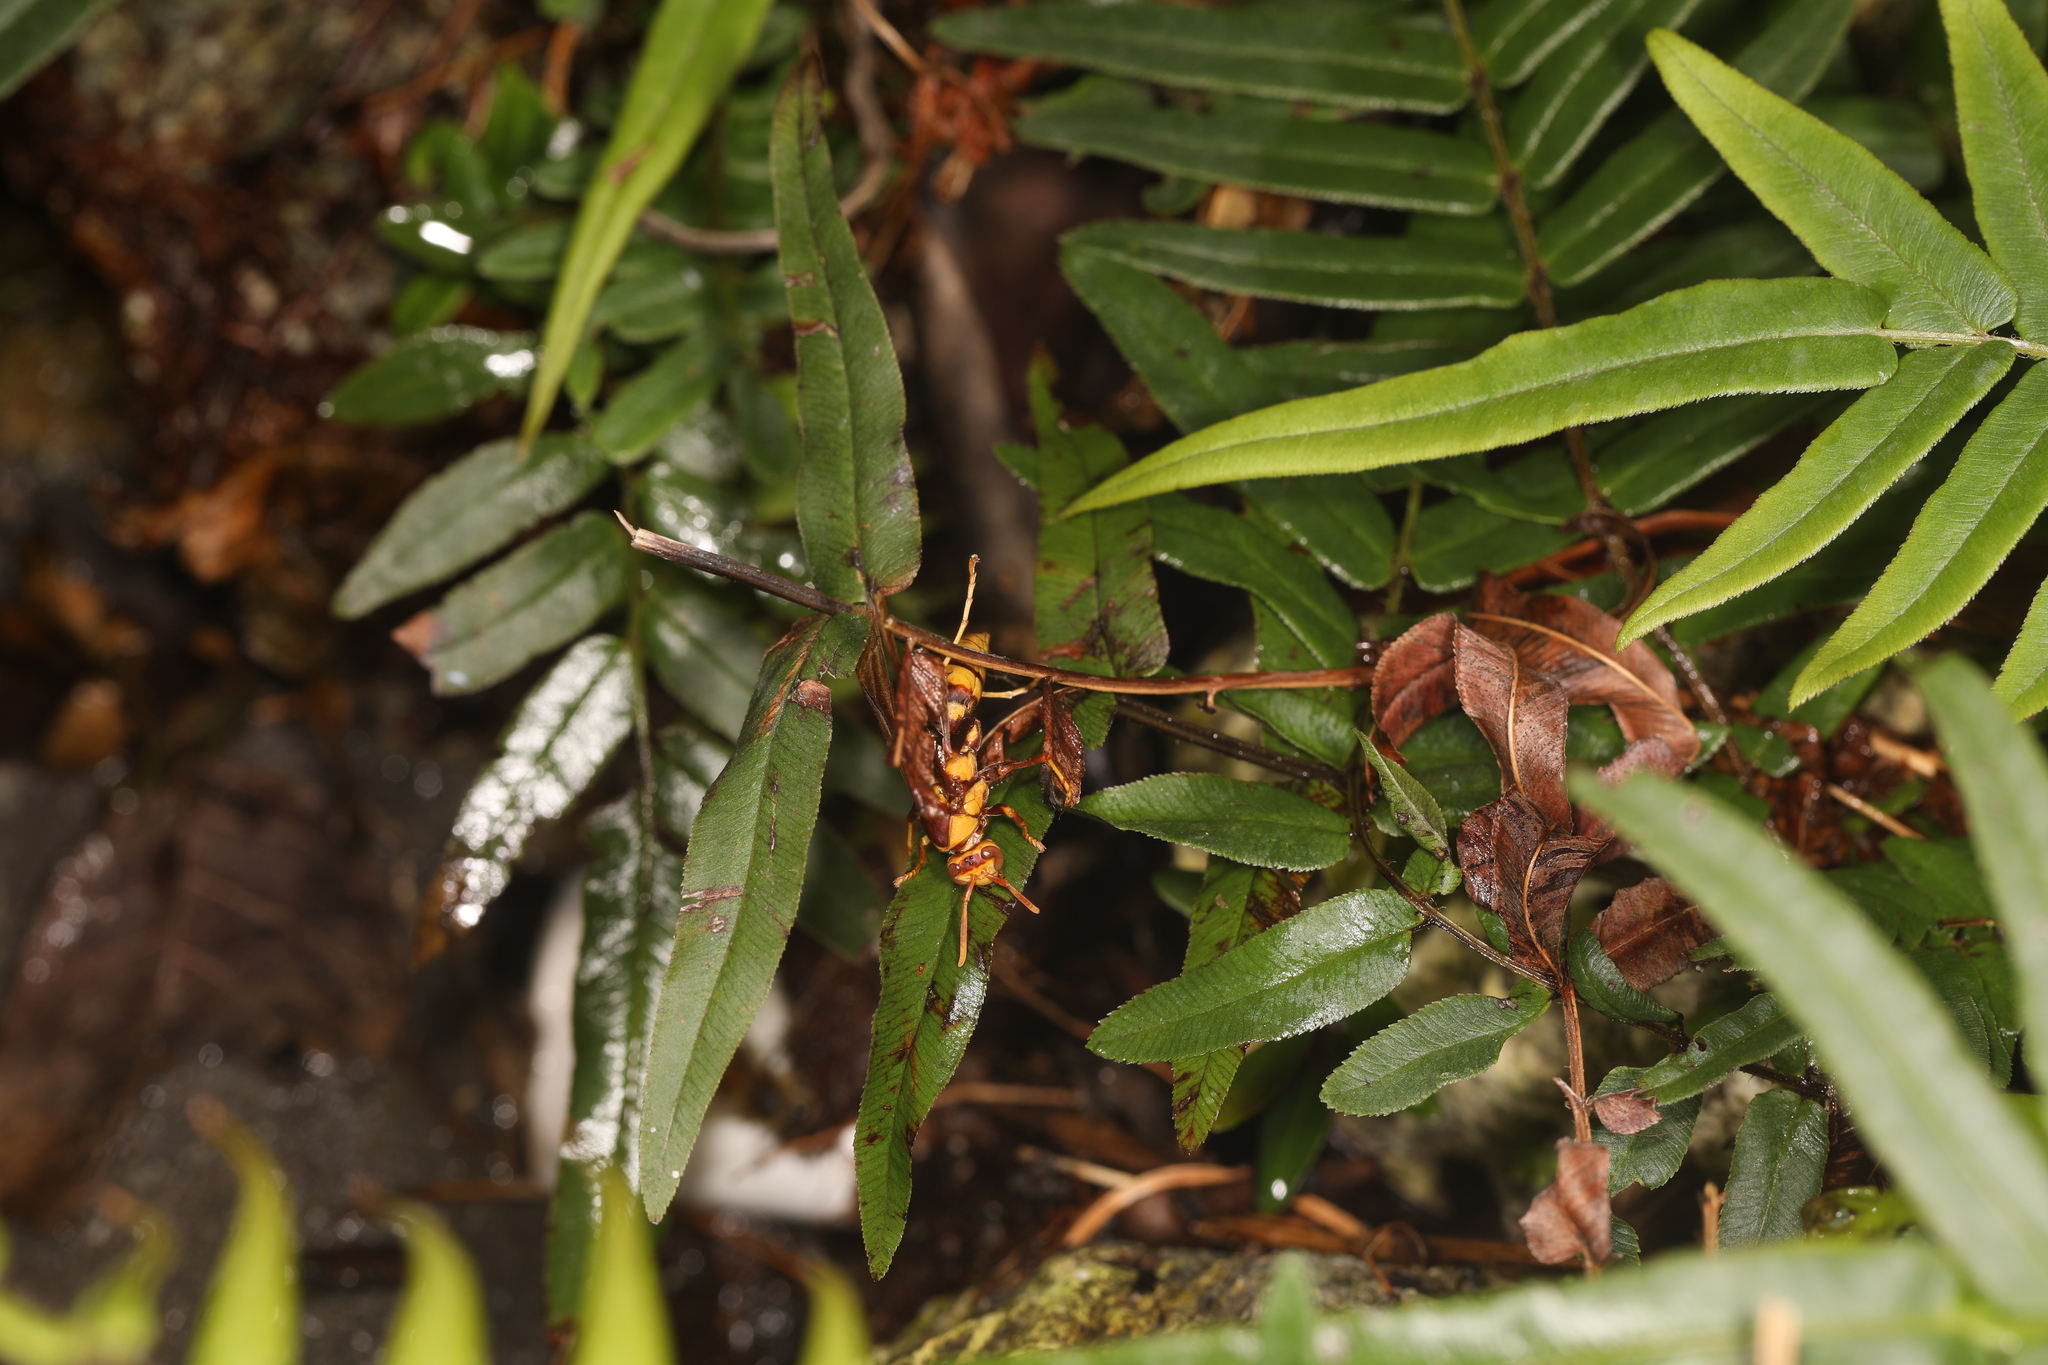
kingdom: Animalia
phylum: Arthropoda
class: Insecta
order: Hymenoptera
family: Eumenidae
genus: Polistes
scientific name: Polistes major
